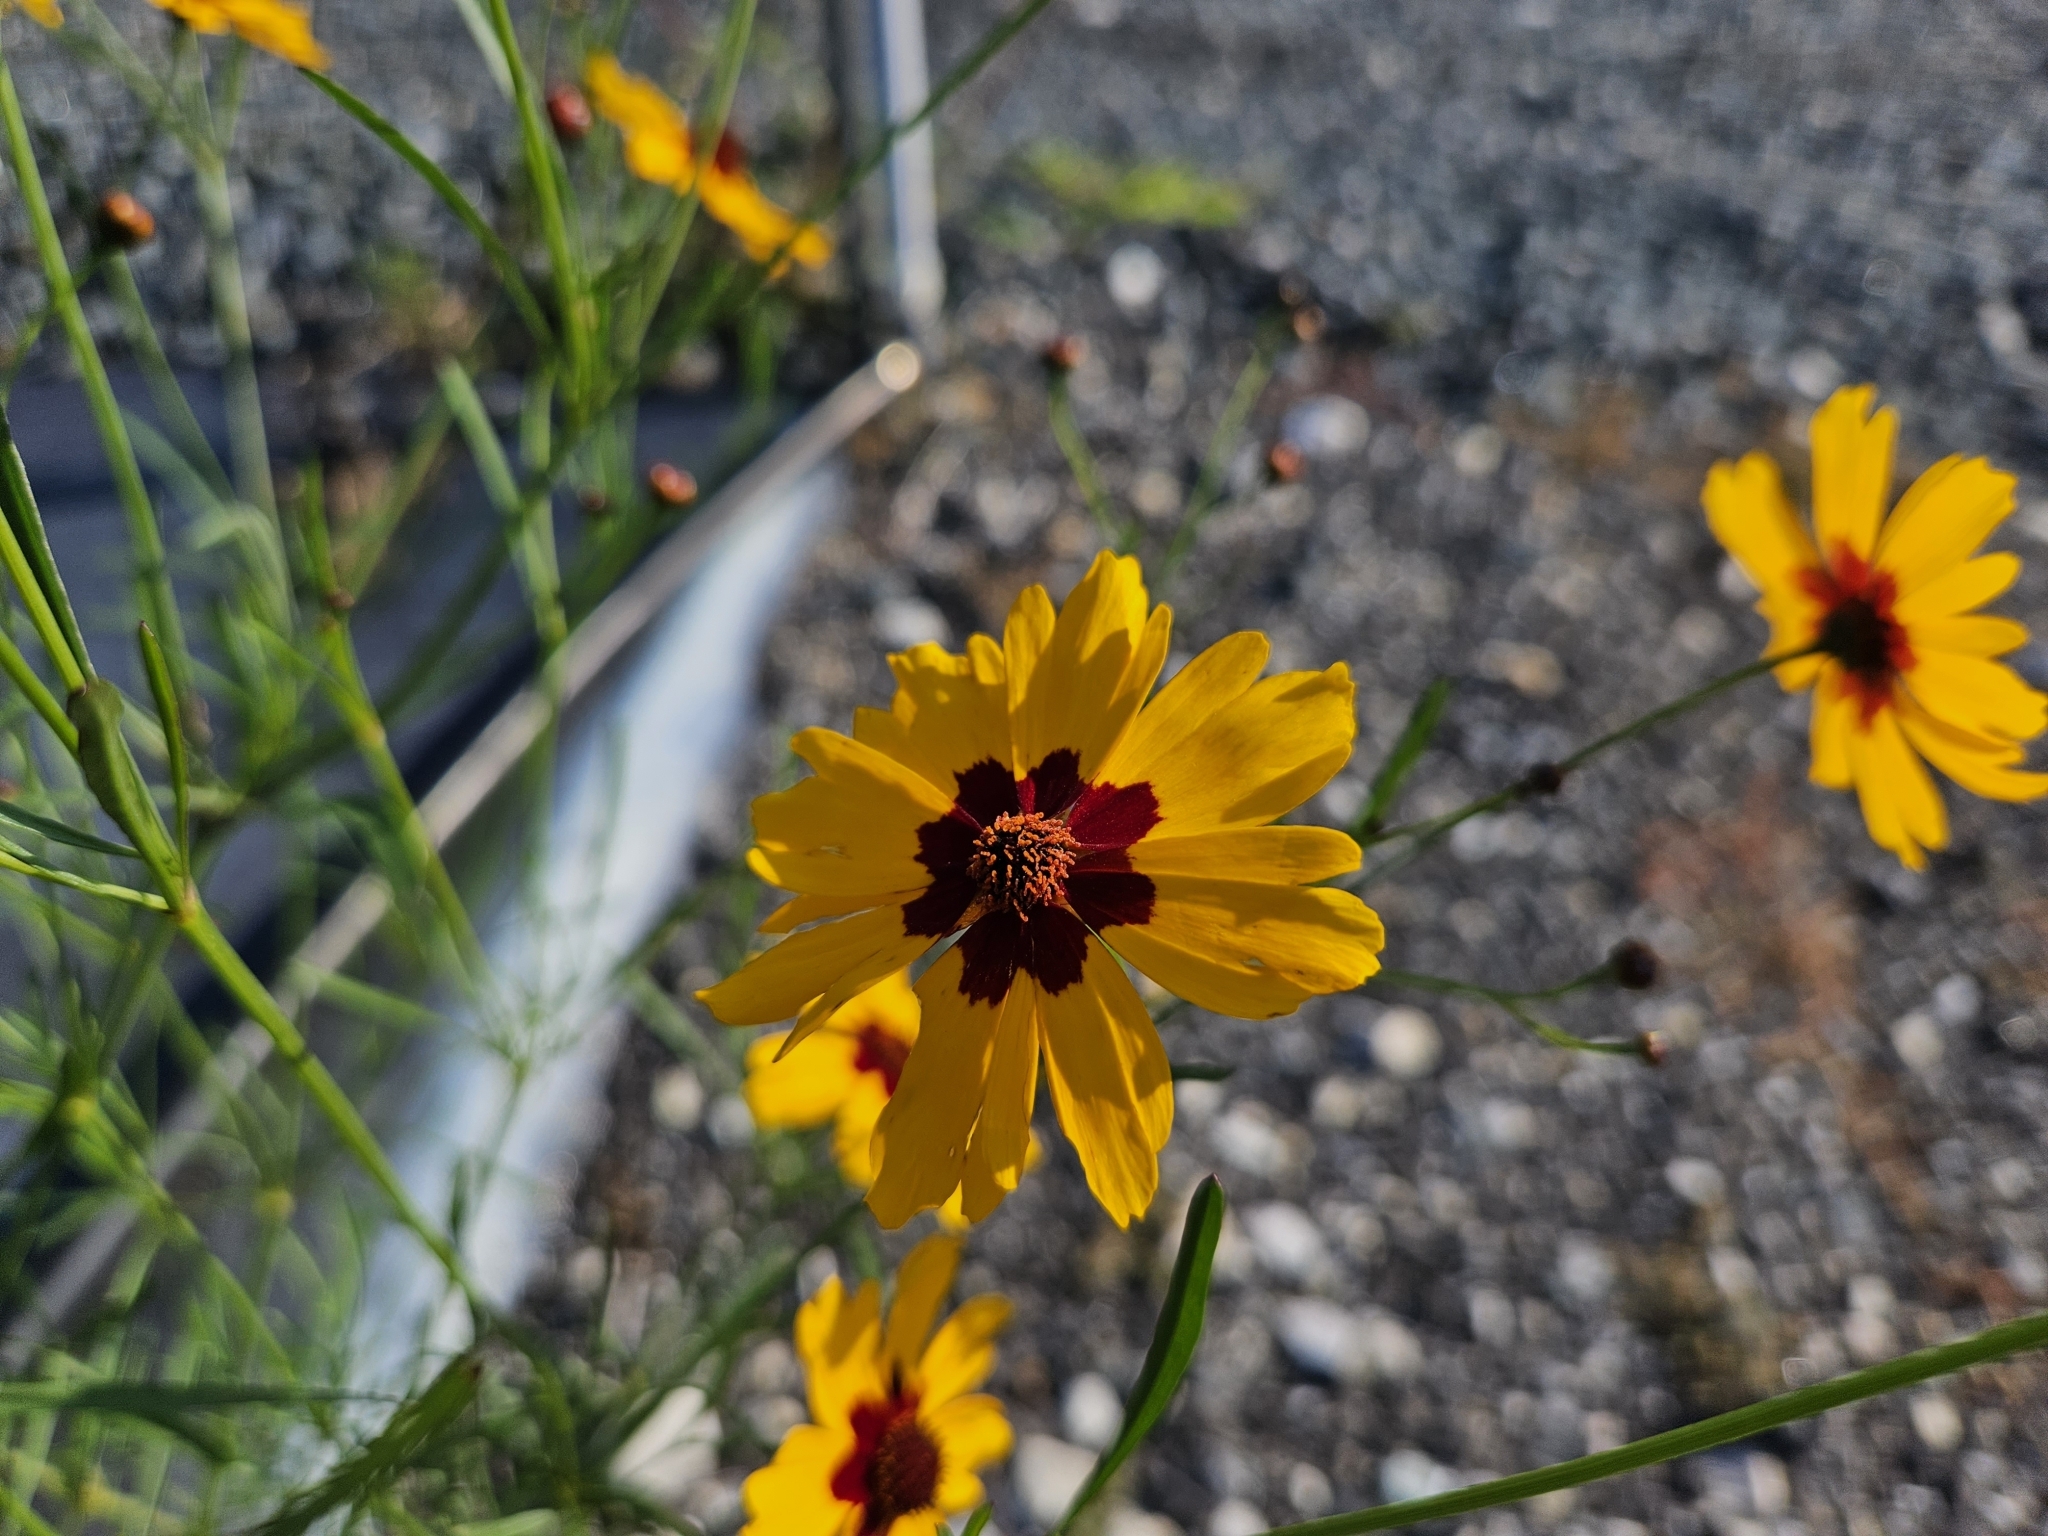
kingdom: Plantae
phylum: Tracheophyta
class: Magnoliopsida
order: Asterales
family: Asteraceae
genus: Coreopsis
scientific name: Coreopsis tinctoria
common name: Garden tickseed
